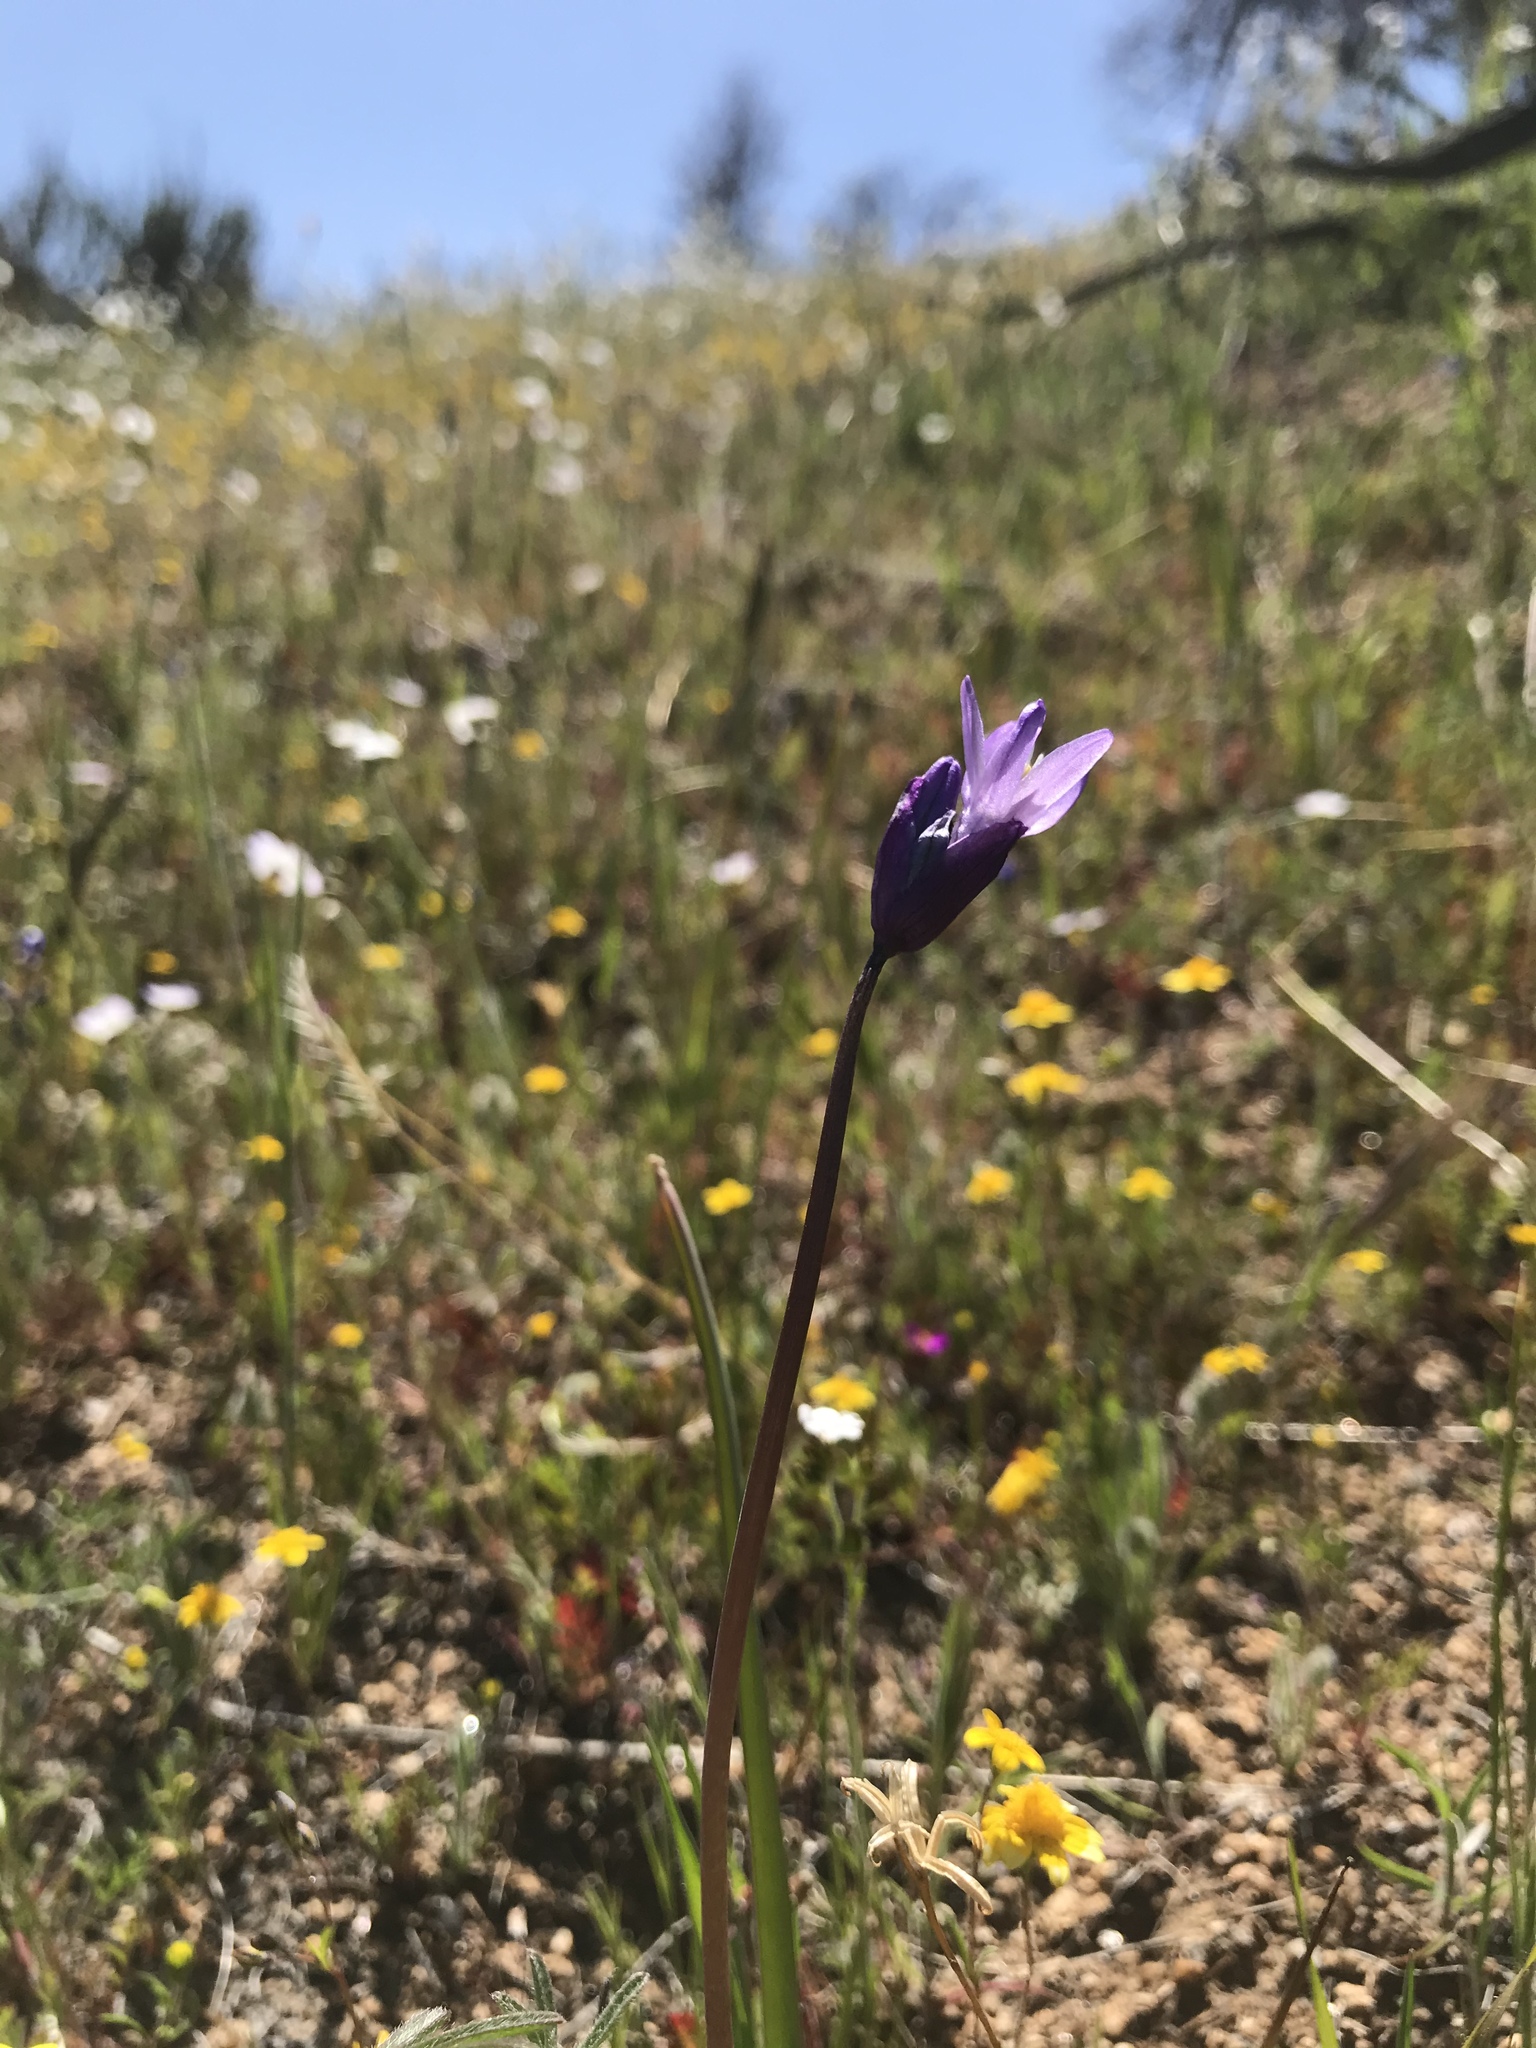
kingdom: Plantae
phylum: Tracheophyta
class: Liliopsida
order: Asparagales
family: Asparagaceae
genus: Dipterostemon
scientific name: Dipterostemon capitatus
